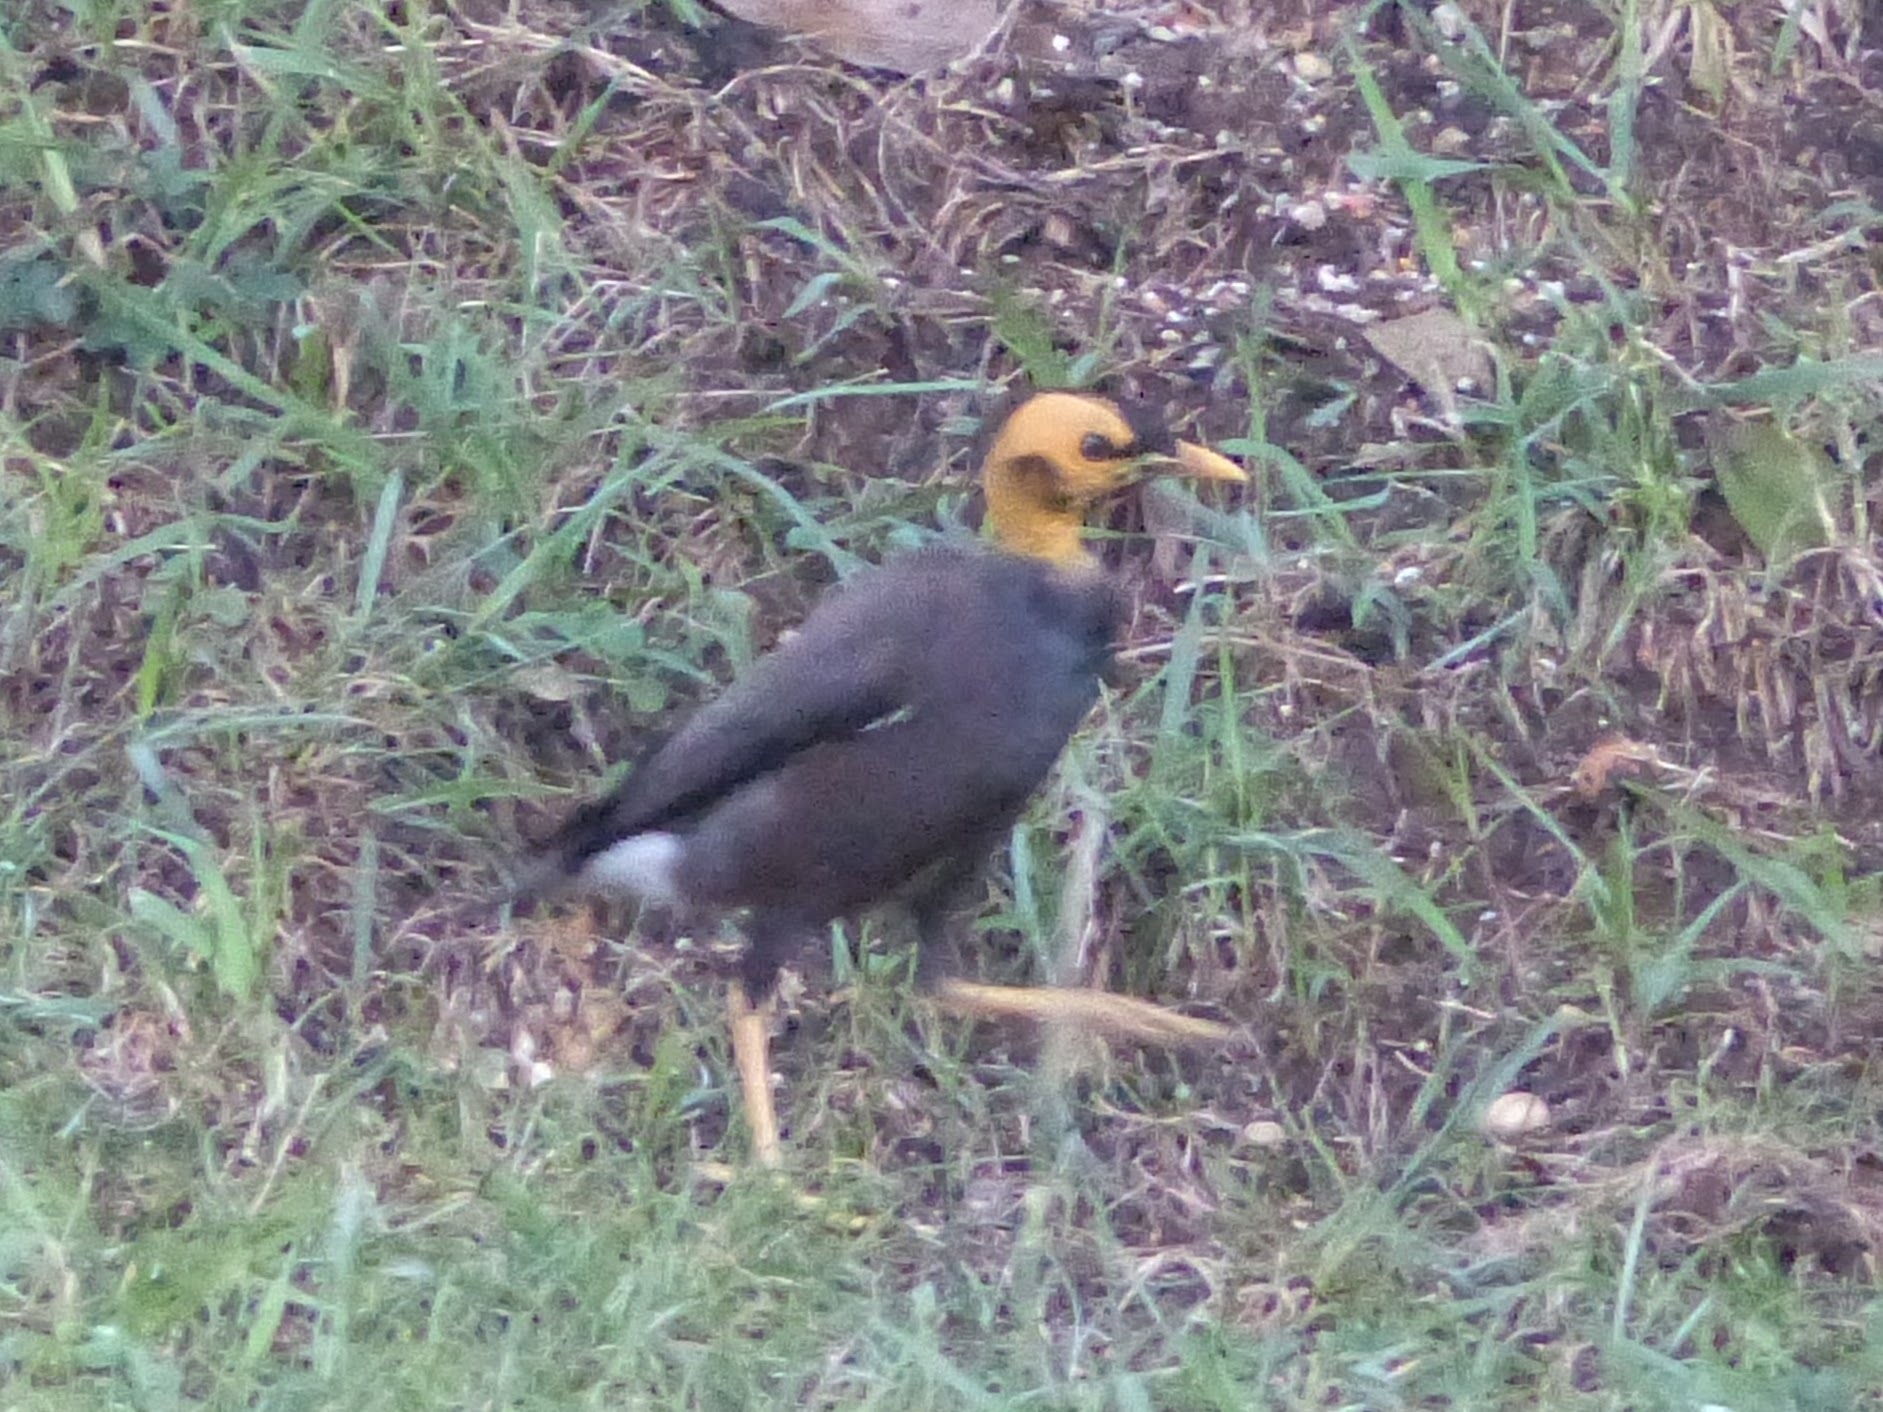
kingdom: Animalia
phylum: Chordata
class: Aves
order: Passeriformes
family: Sturnidae
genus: Acridotheres
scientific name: Acridotheres tristis
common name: Common myna
